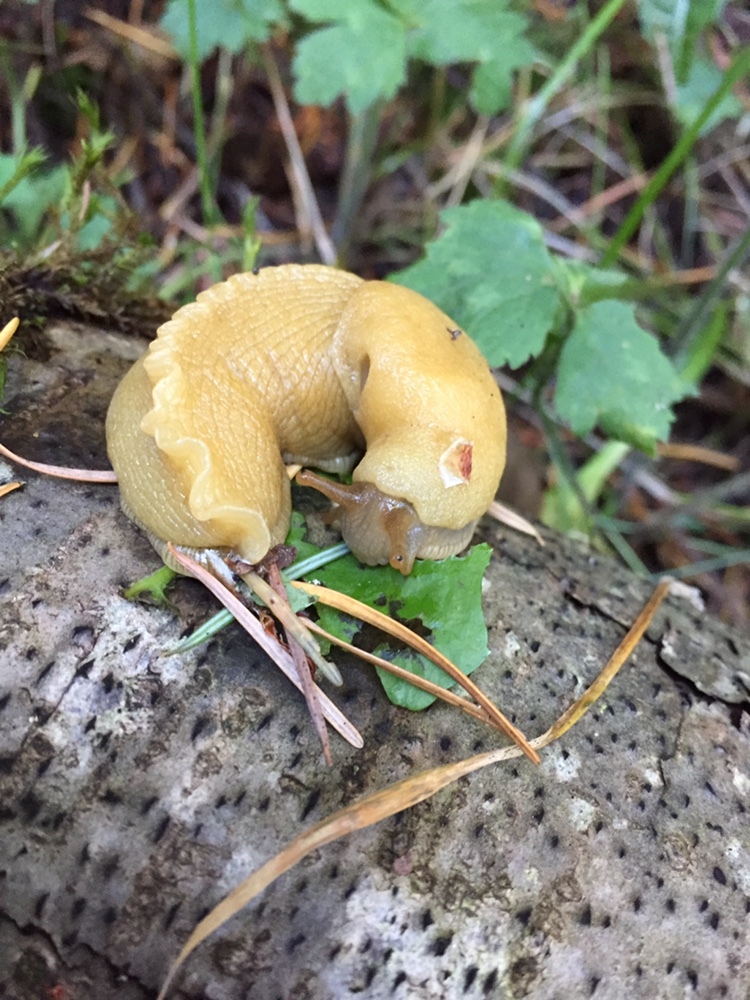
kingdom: Animalia
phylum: Mollusca
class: Gastropoda
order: Stylommatophora
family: Ariolimacidae
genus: Ariolimax
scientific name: Ariolimax columbianus
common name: Pacific banana slug
